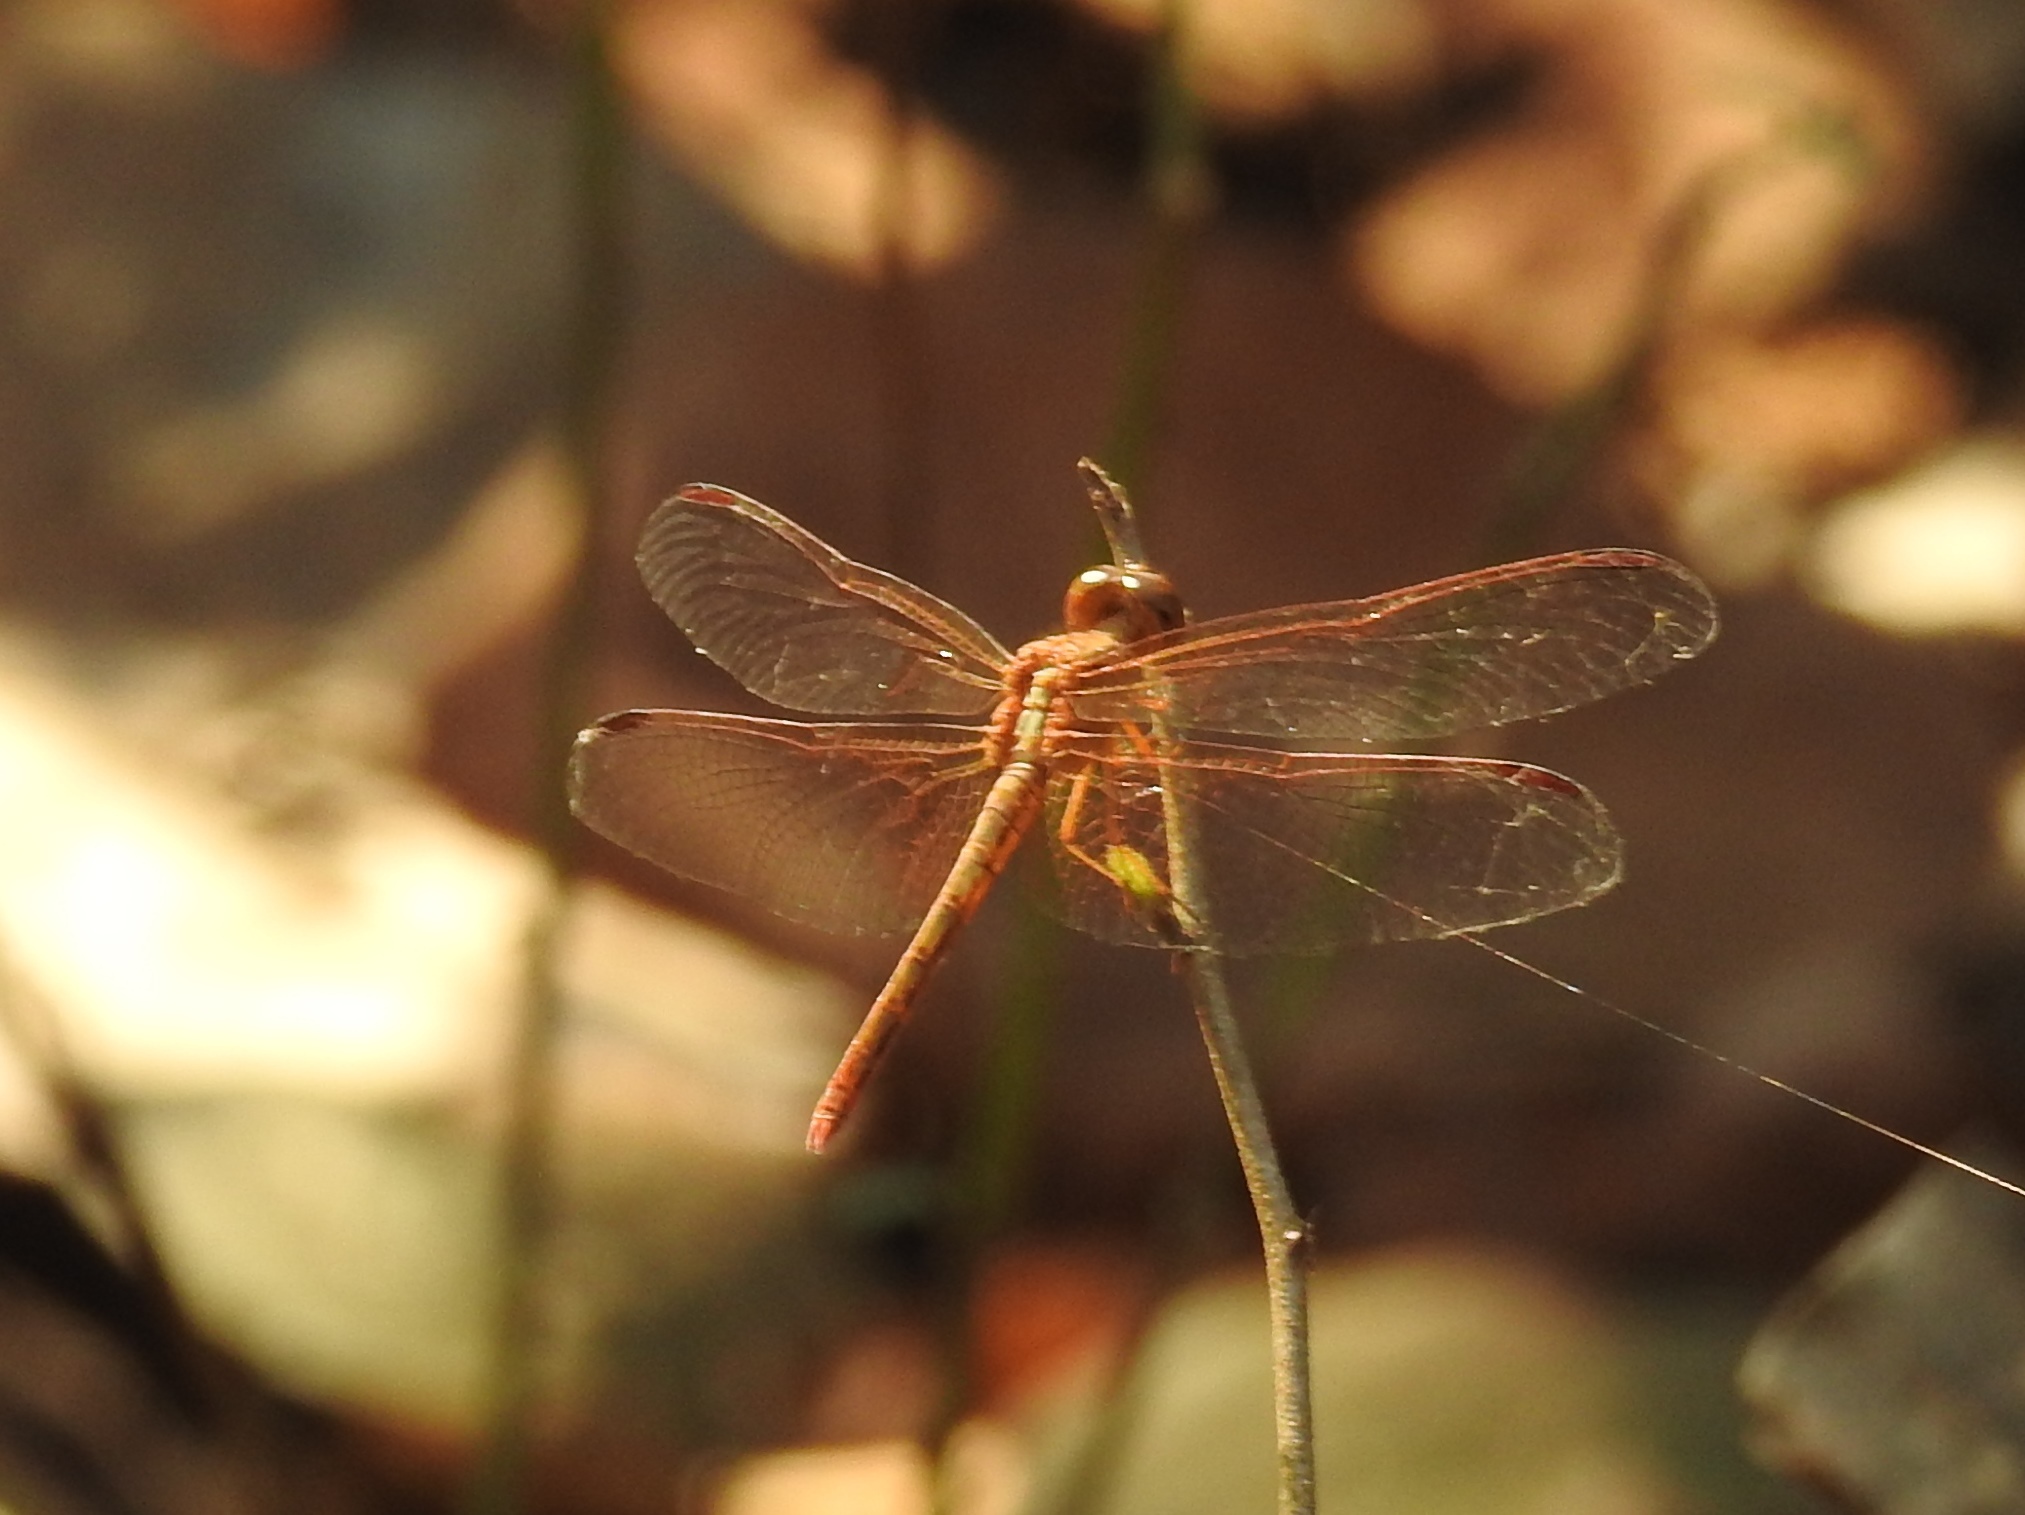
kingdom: Animalia
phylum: Arthropoda
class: Insecta
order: Odonata
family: Libellulidae
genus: Neurothemis
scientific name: Neurothemis intermedia
